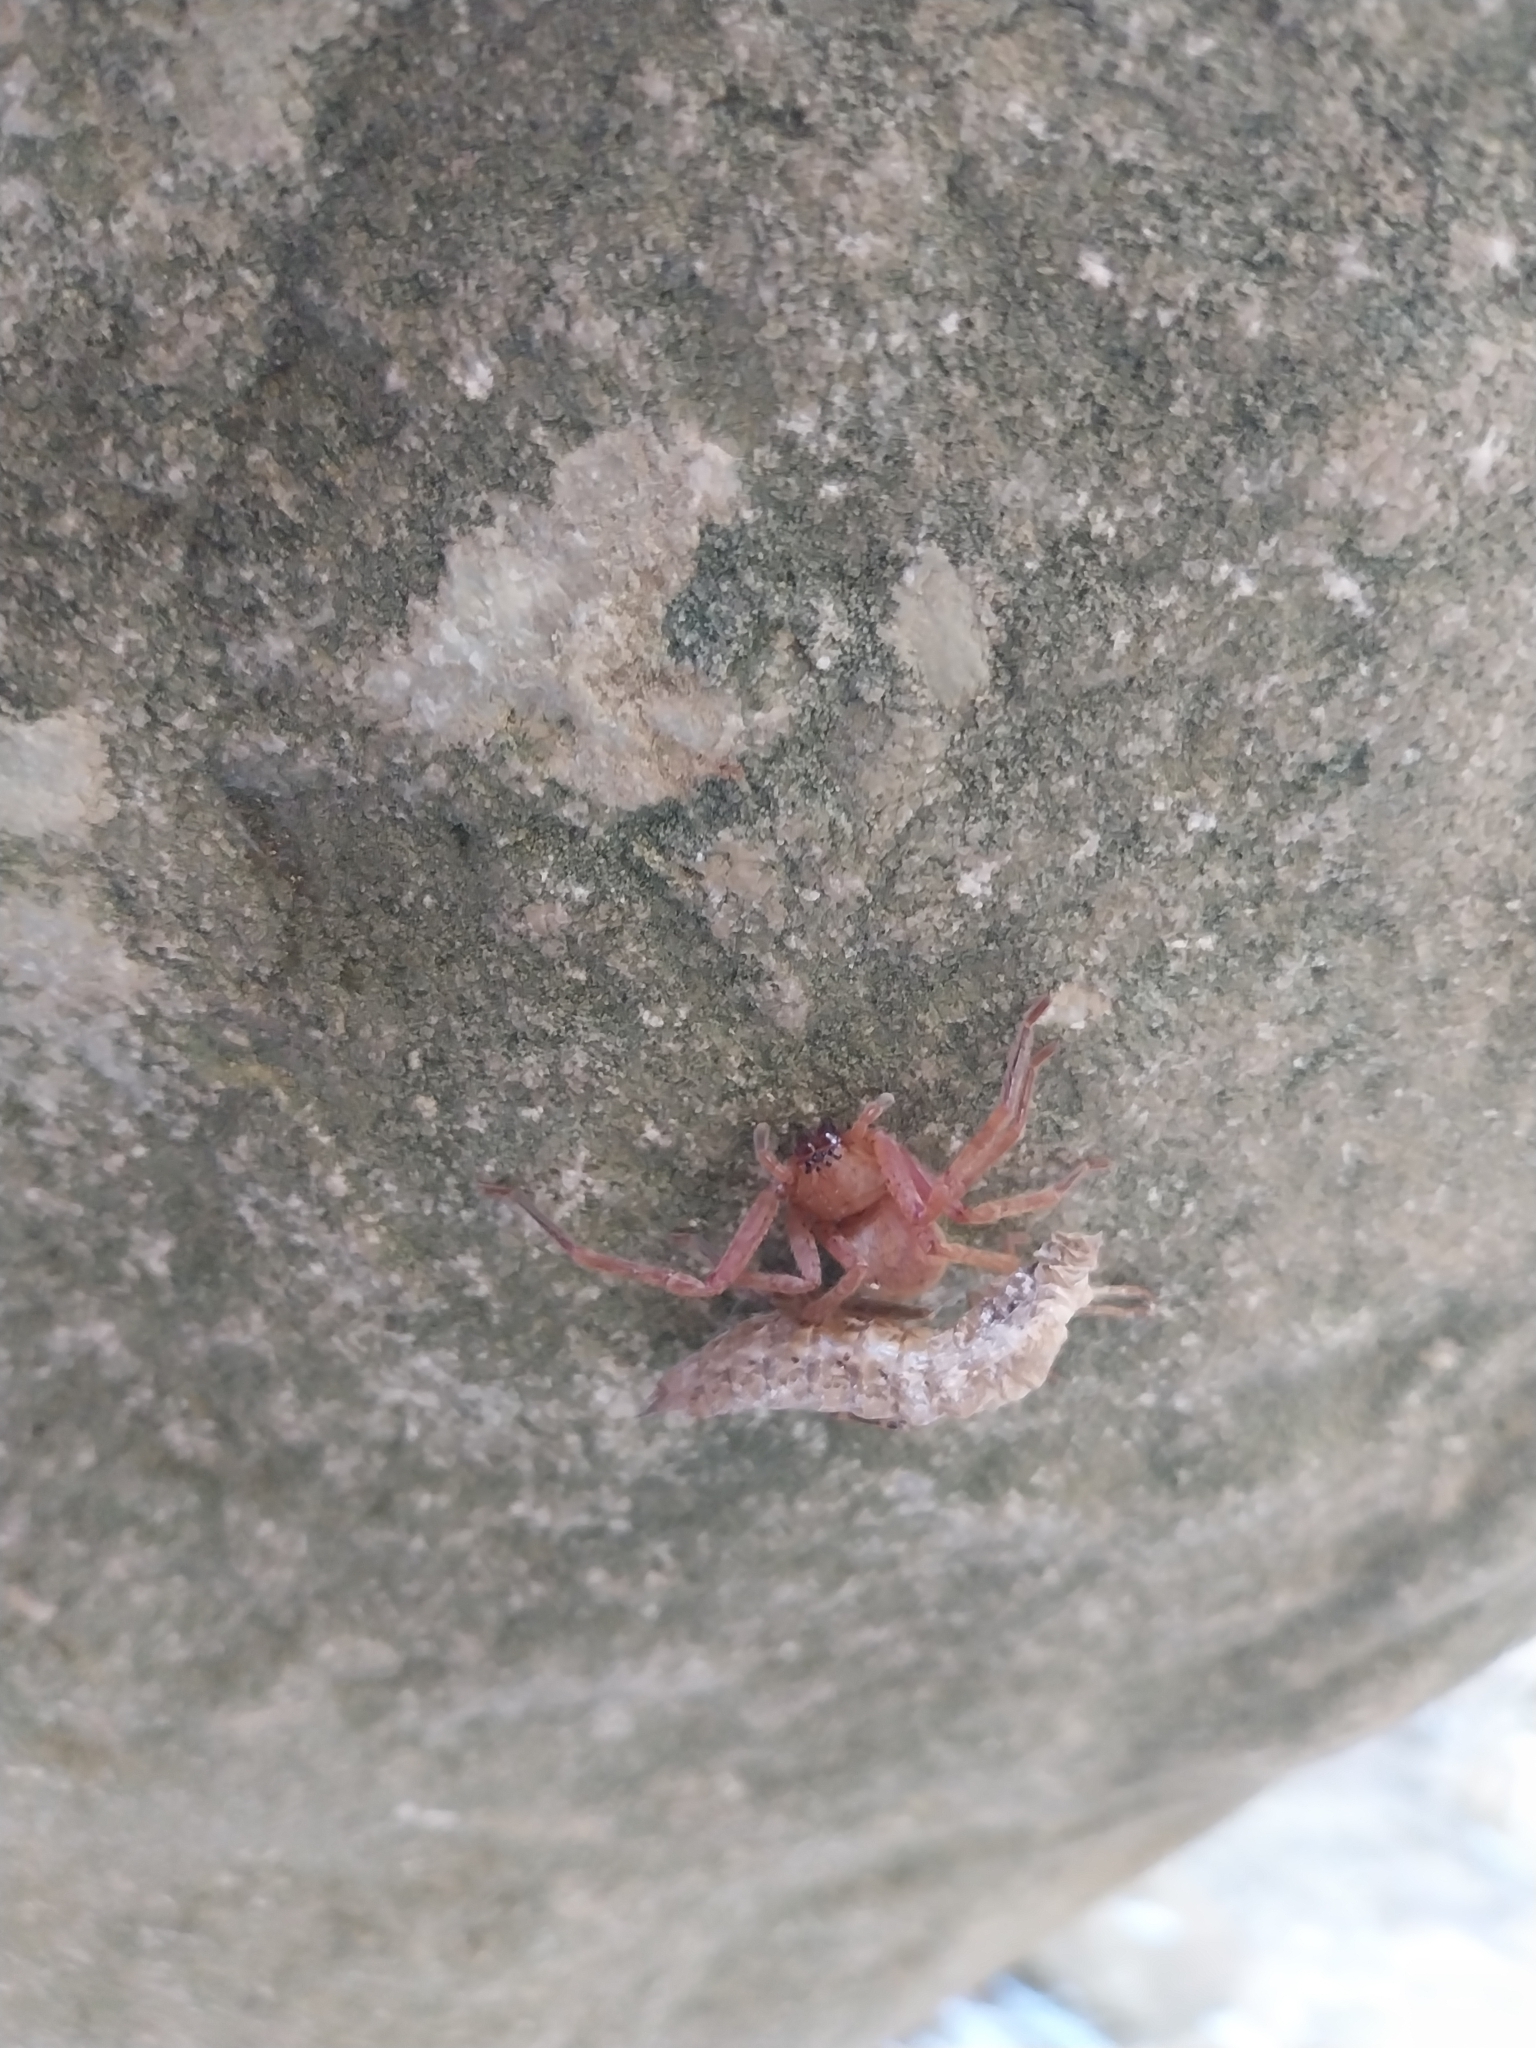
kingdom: Animalia
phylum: Arthropoda
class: Arachnida
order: Araneae
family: Sparassidae
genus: Olios
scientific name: Olios argelasius
